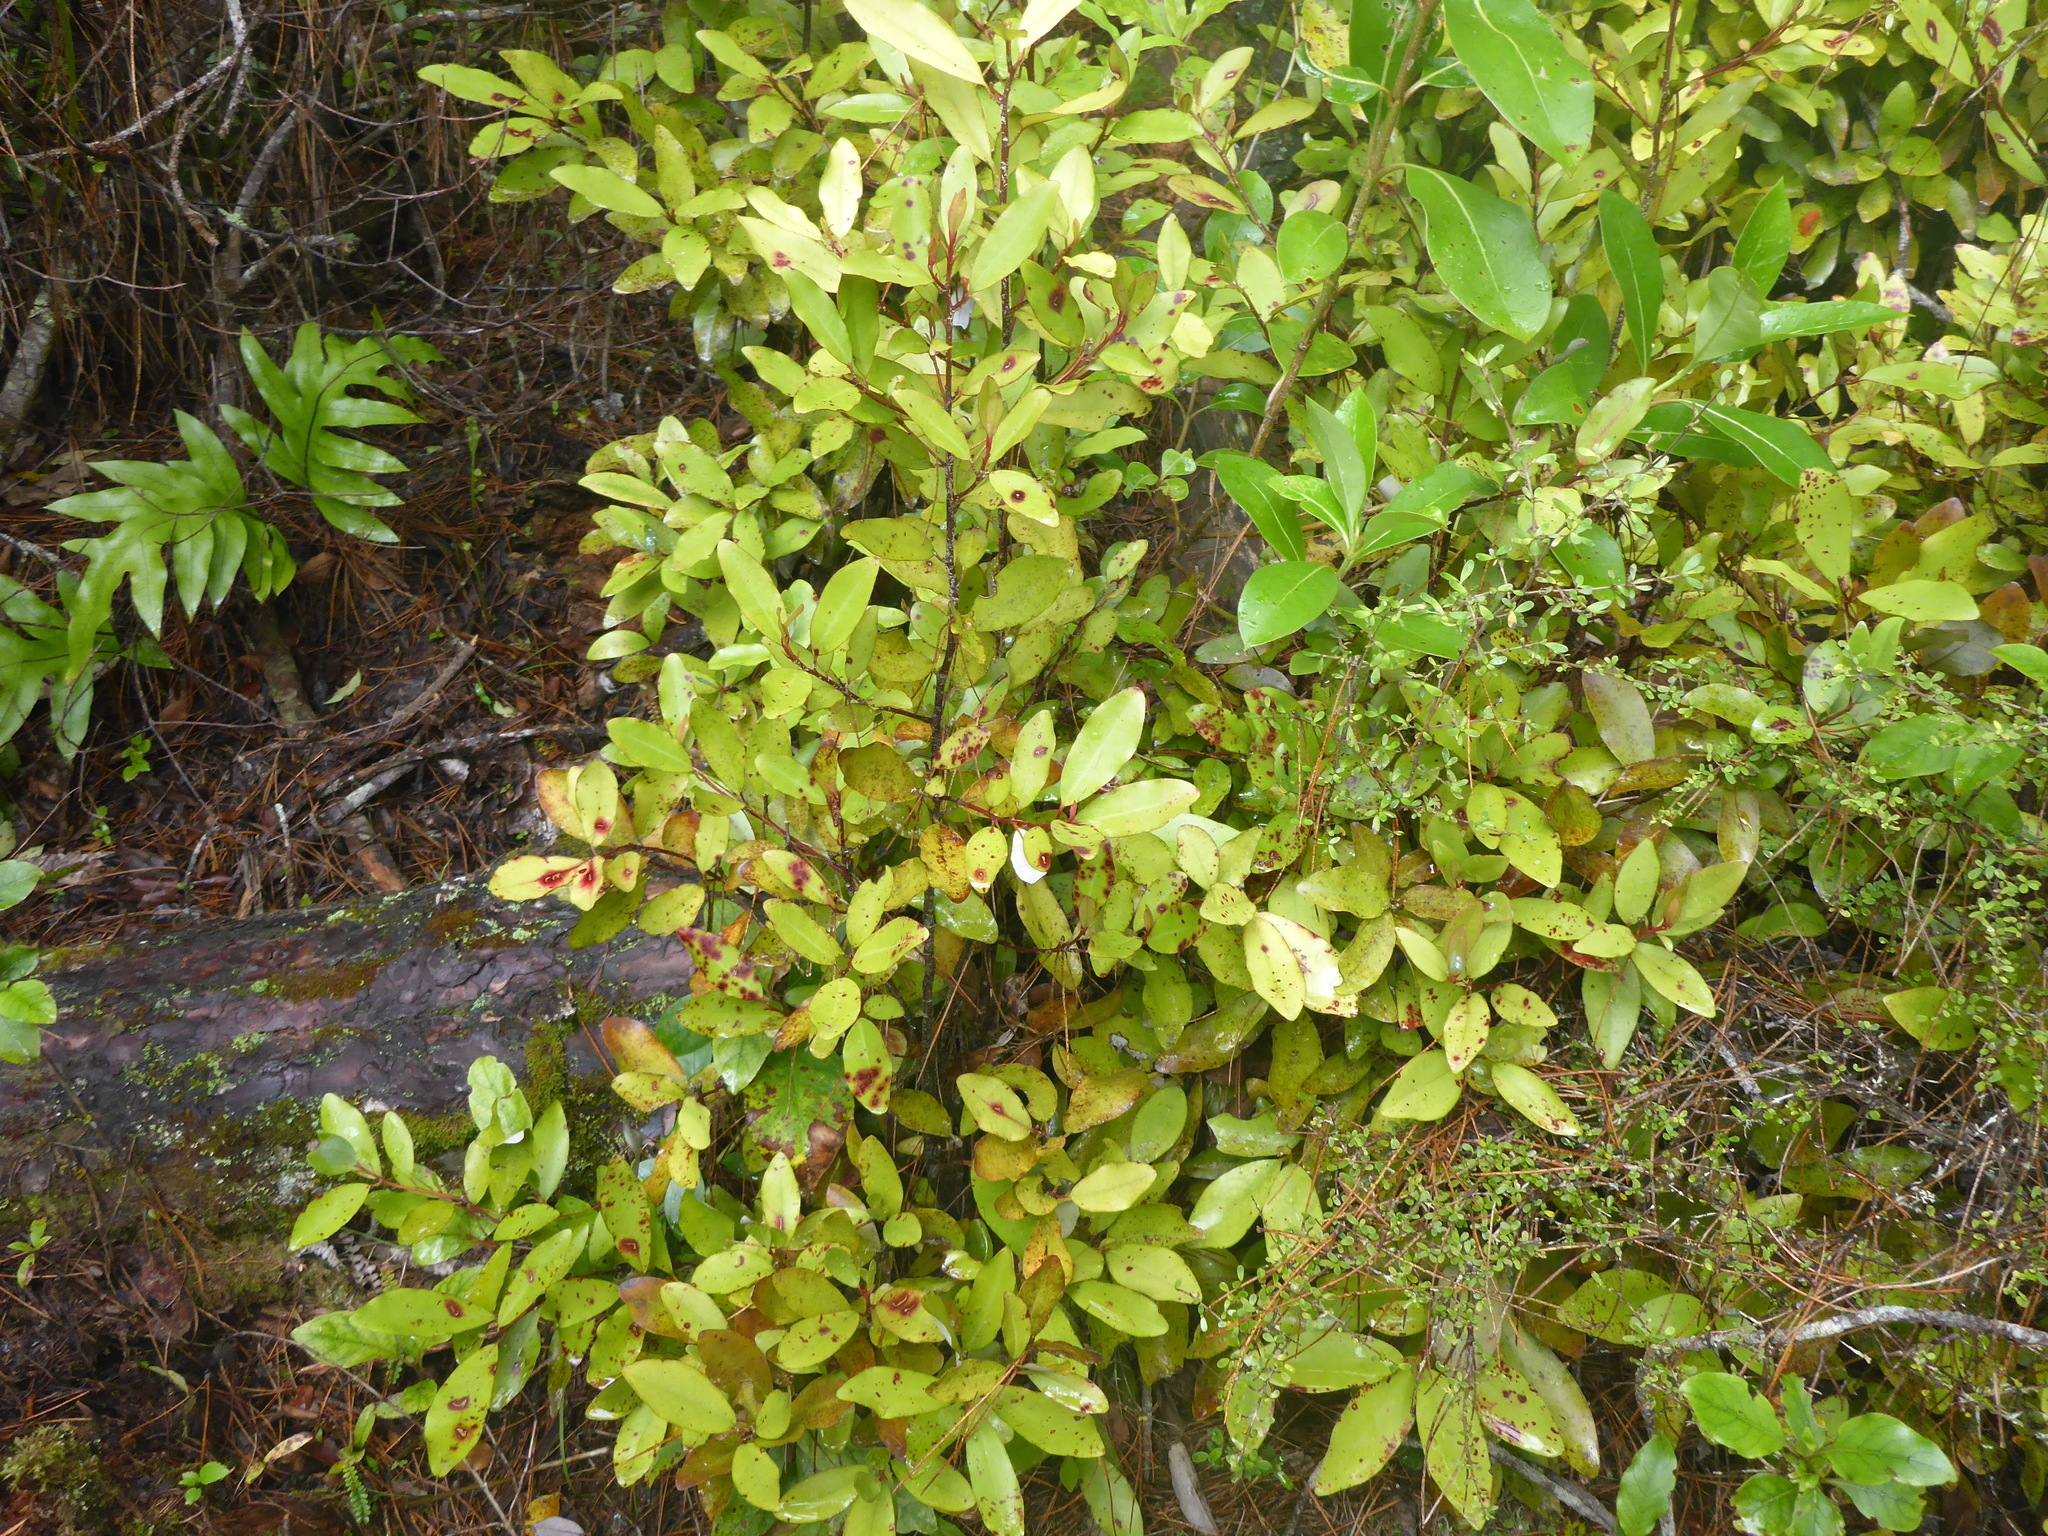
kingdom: Plantae
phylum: Tracheophyta
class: Magnoliopsida
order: Canellales
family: Winteraceae
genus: Pseudowintera
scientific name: Pseudowintera colorata
